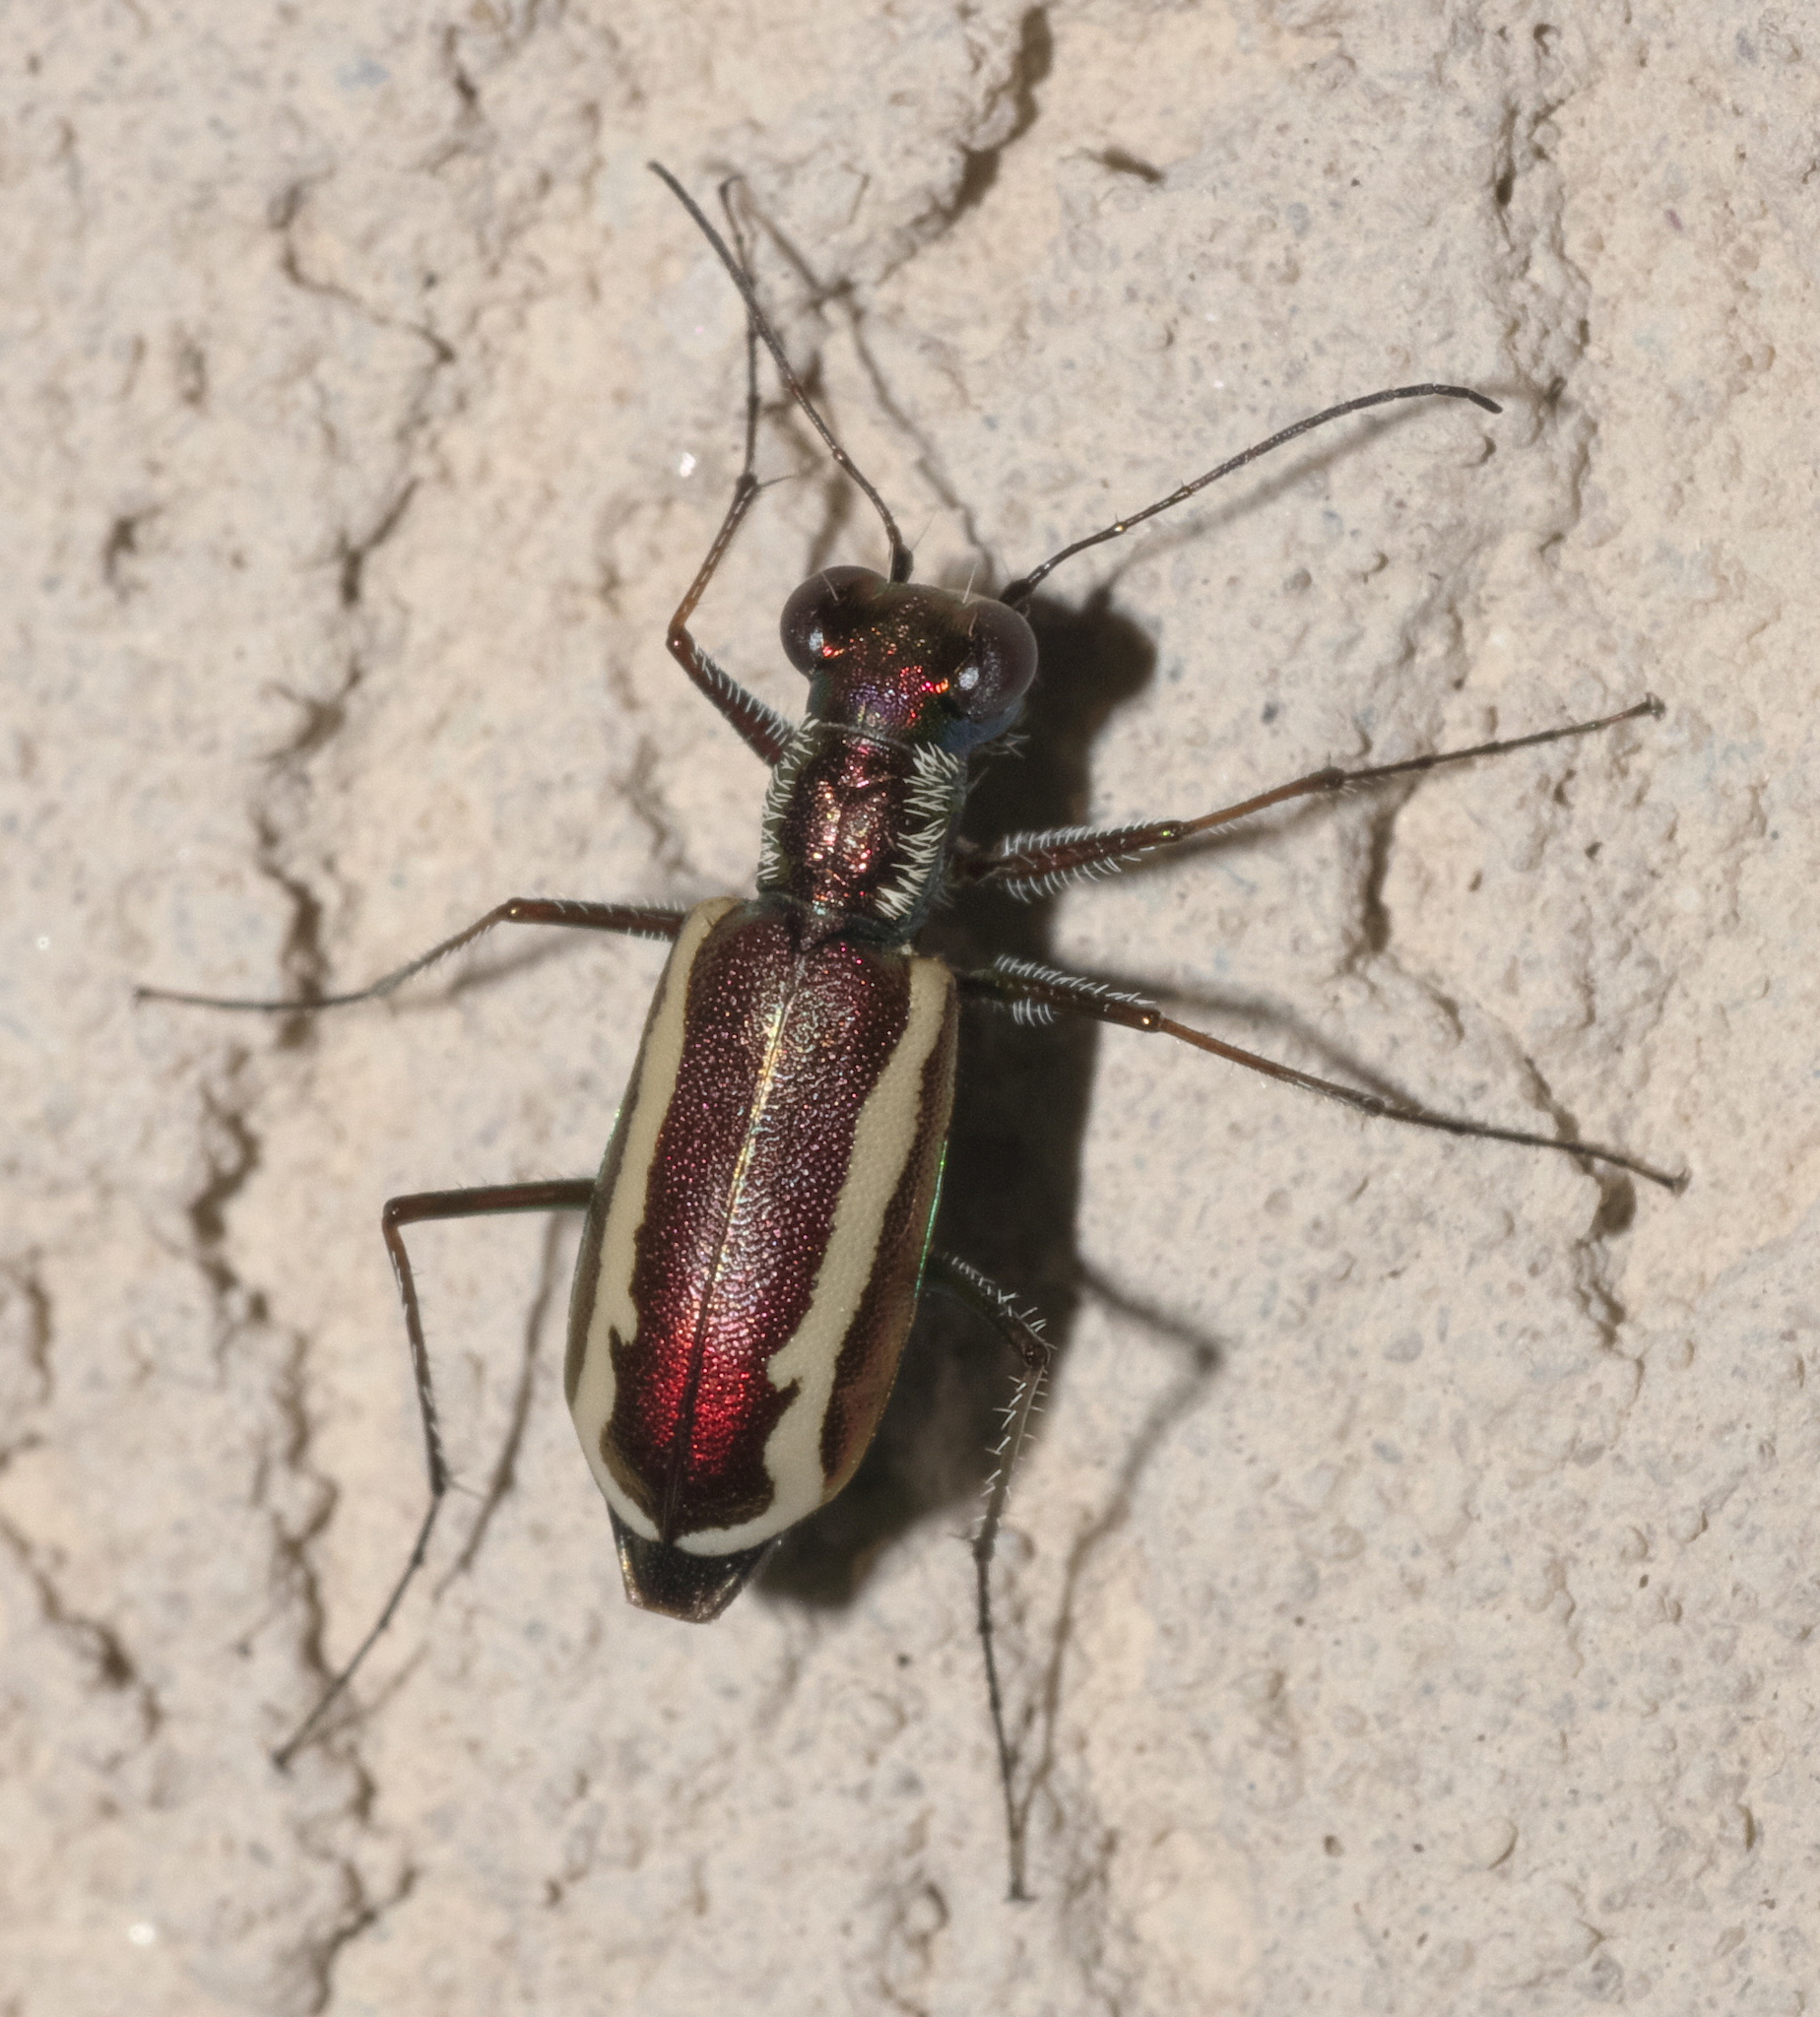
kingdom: Animalia
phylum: Arthropoda
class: Insecta
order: Coleoptera
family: Carabidae
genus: Cylindera
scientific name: Cylindera lemniscata
